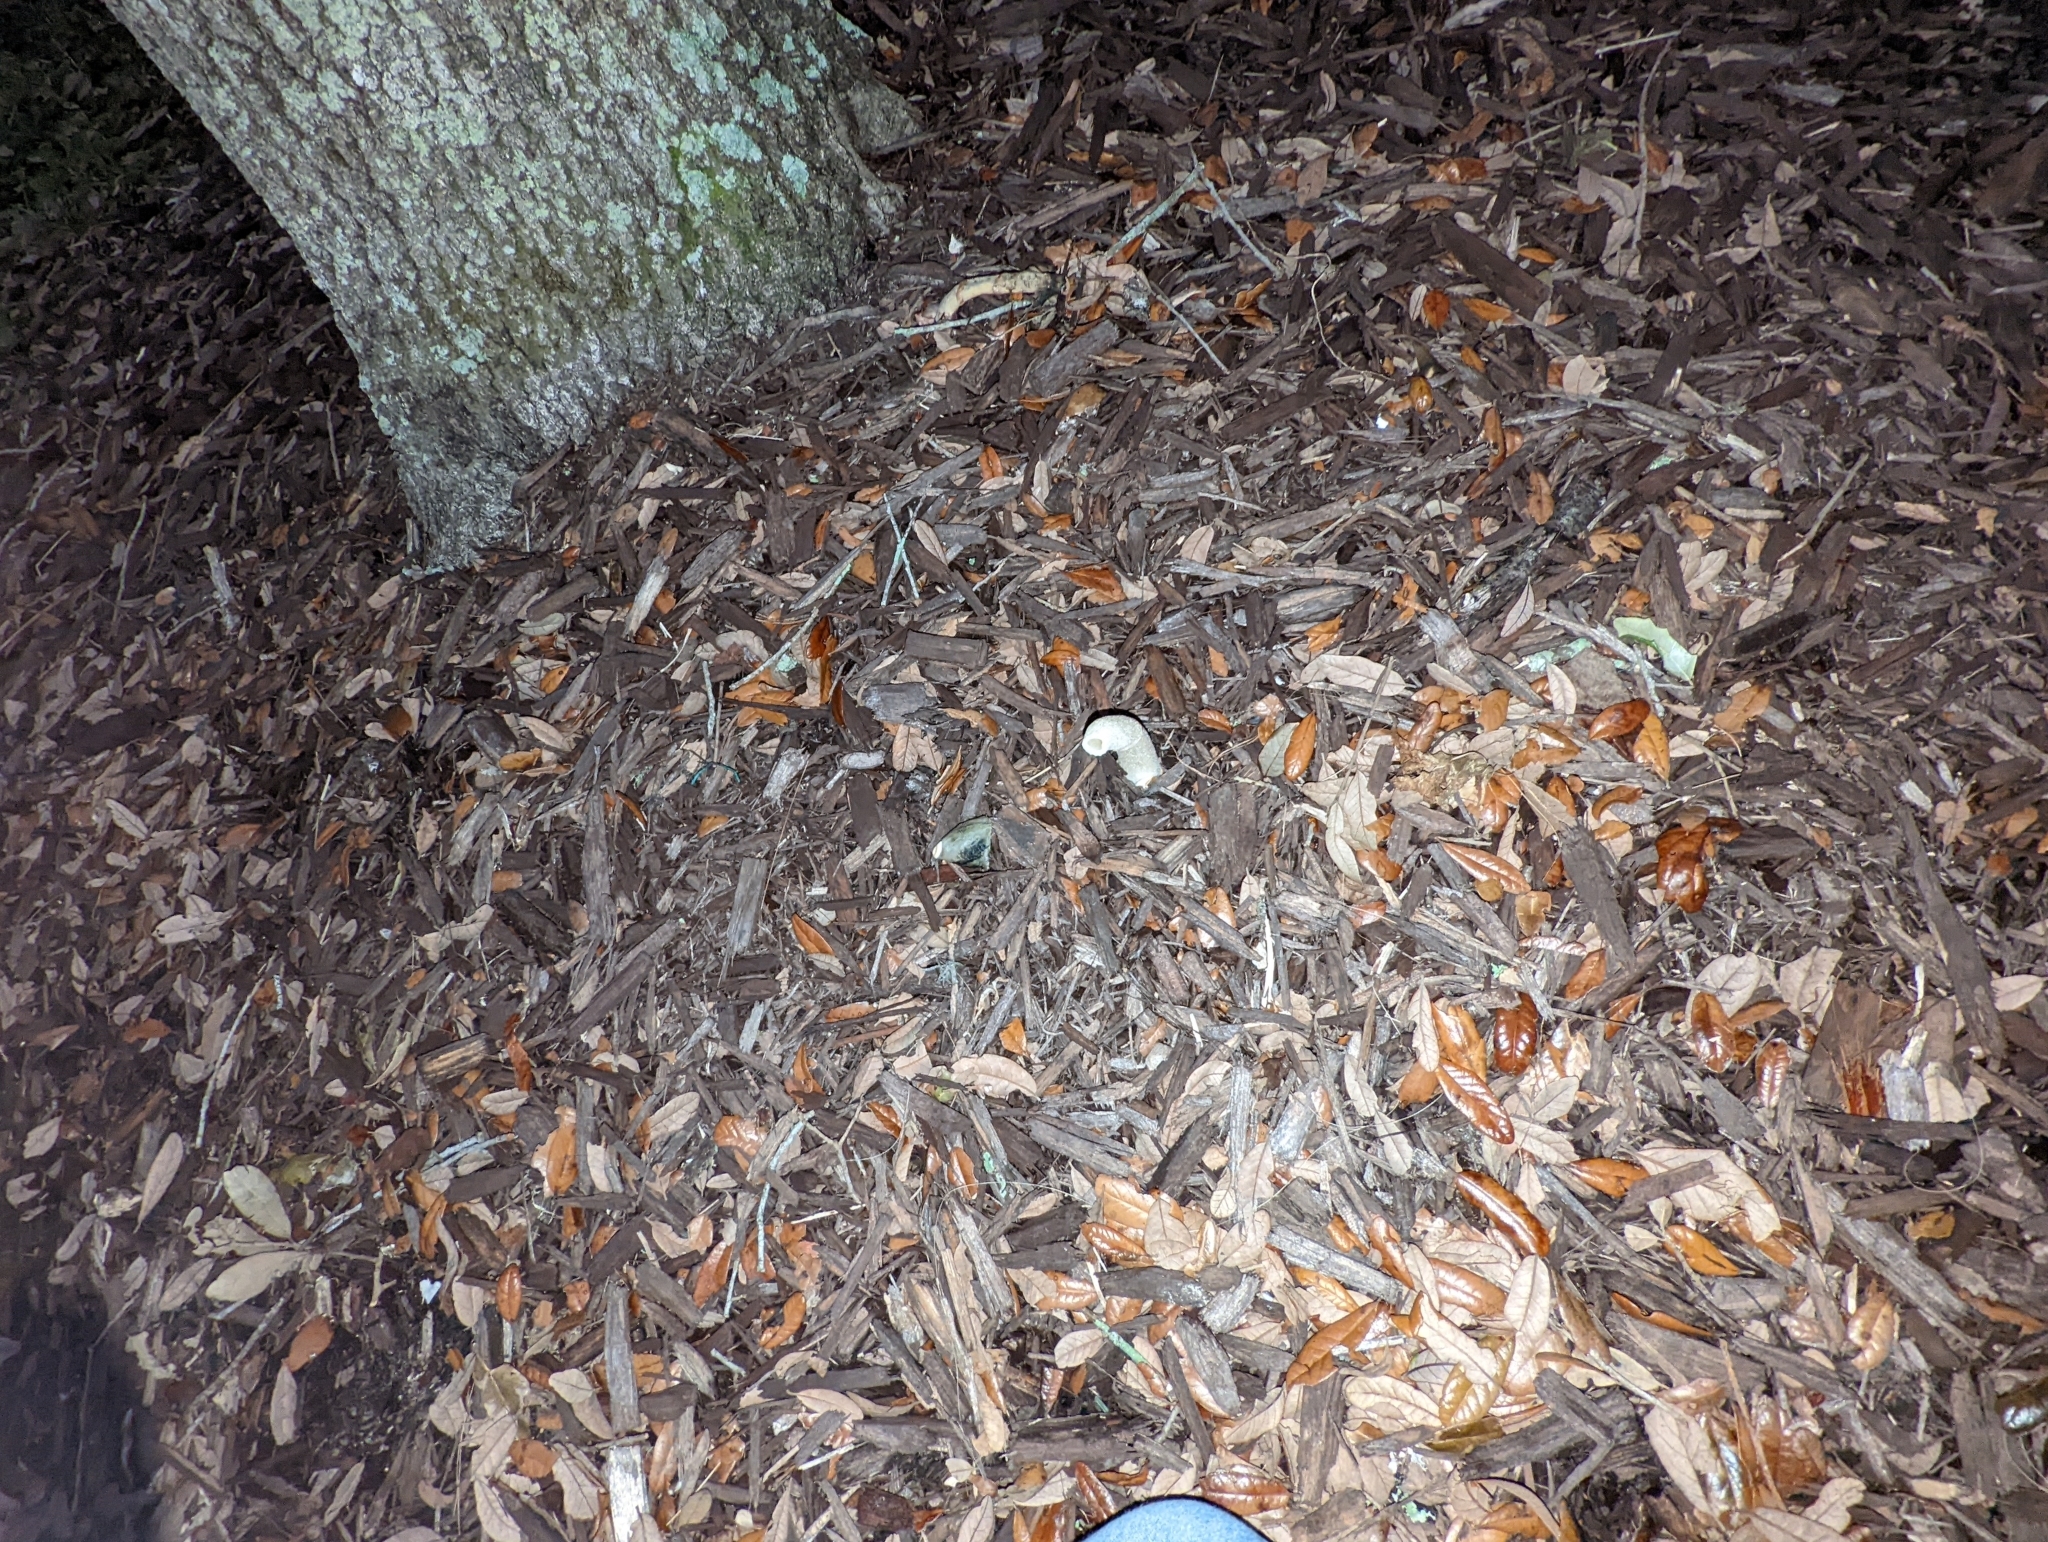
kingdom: Fungi
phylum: Basidiomycota
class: Agaricomycetes
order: Phallales
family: Phallaceae
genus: Phallus
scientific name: Phallus ravenelii
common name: Ravenel's stinkhorn
